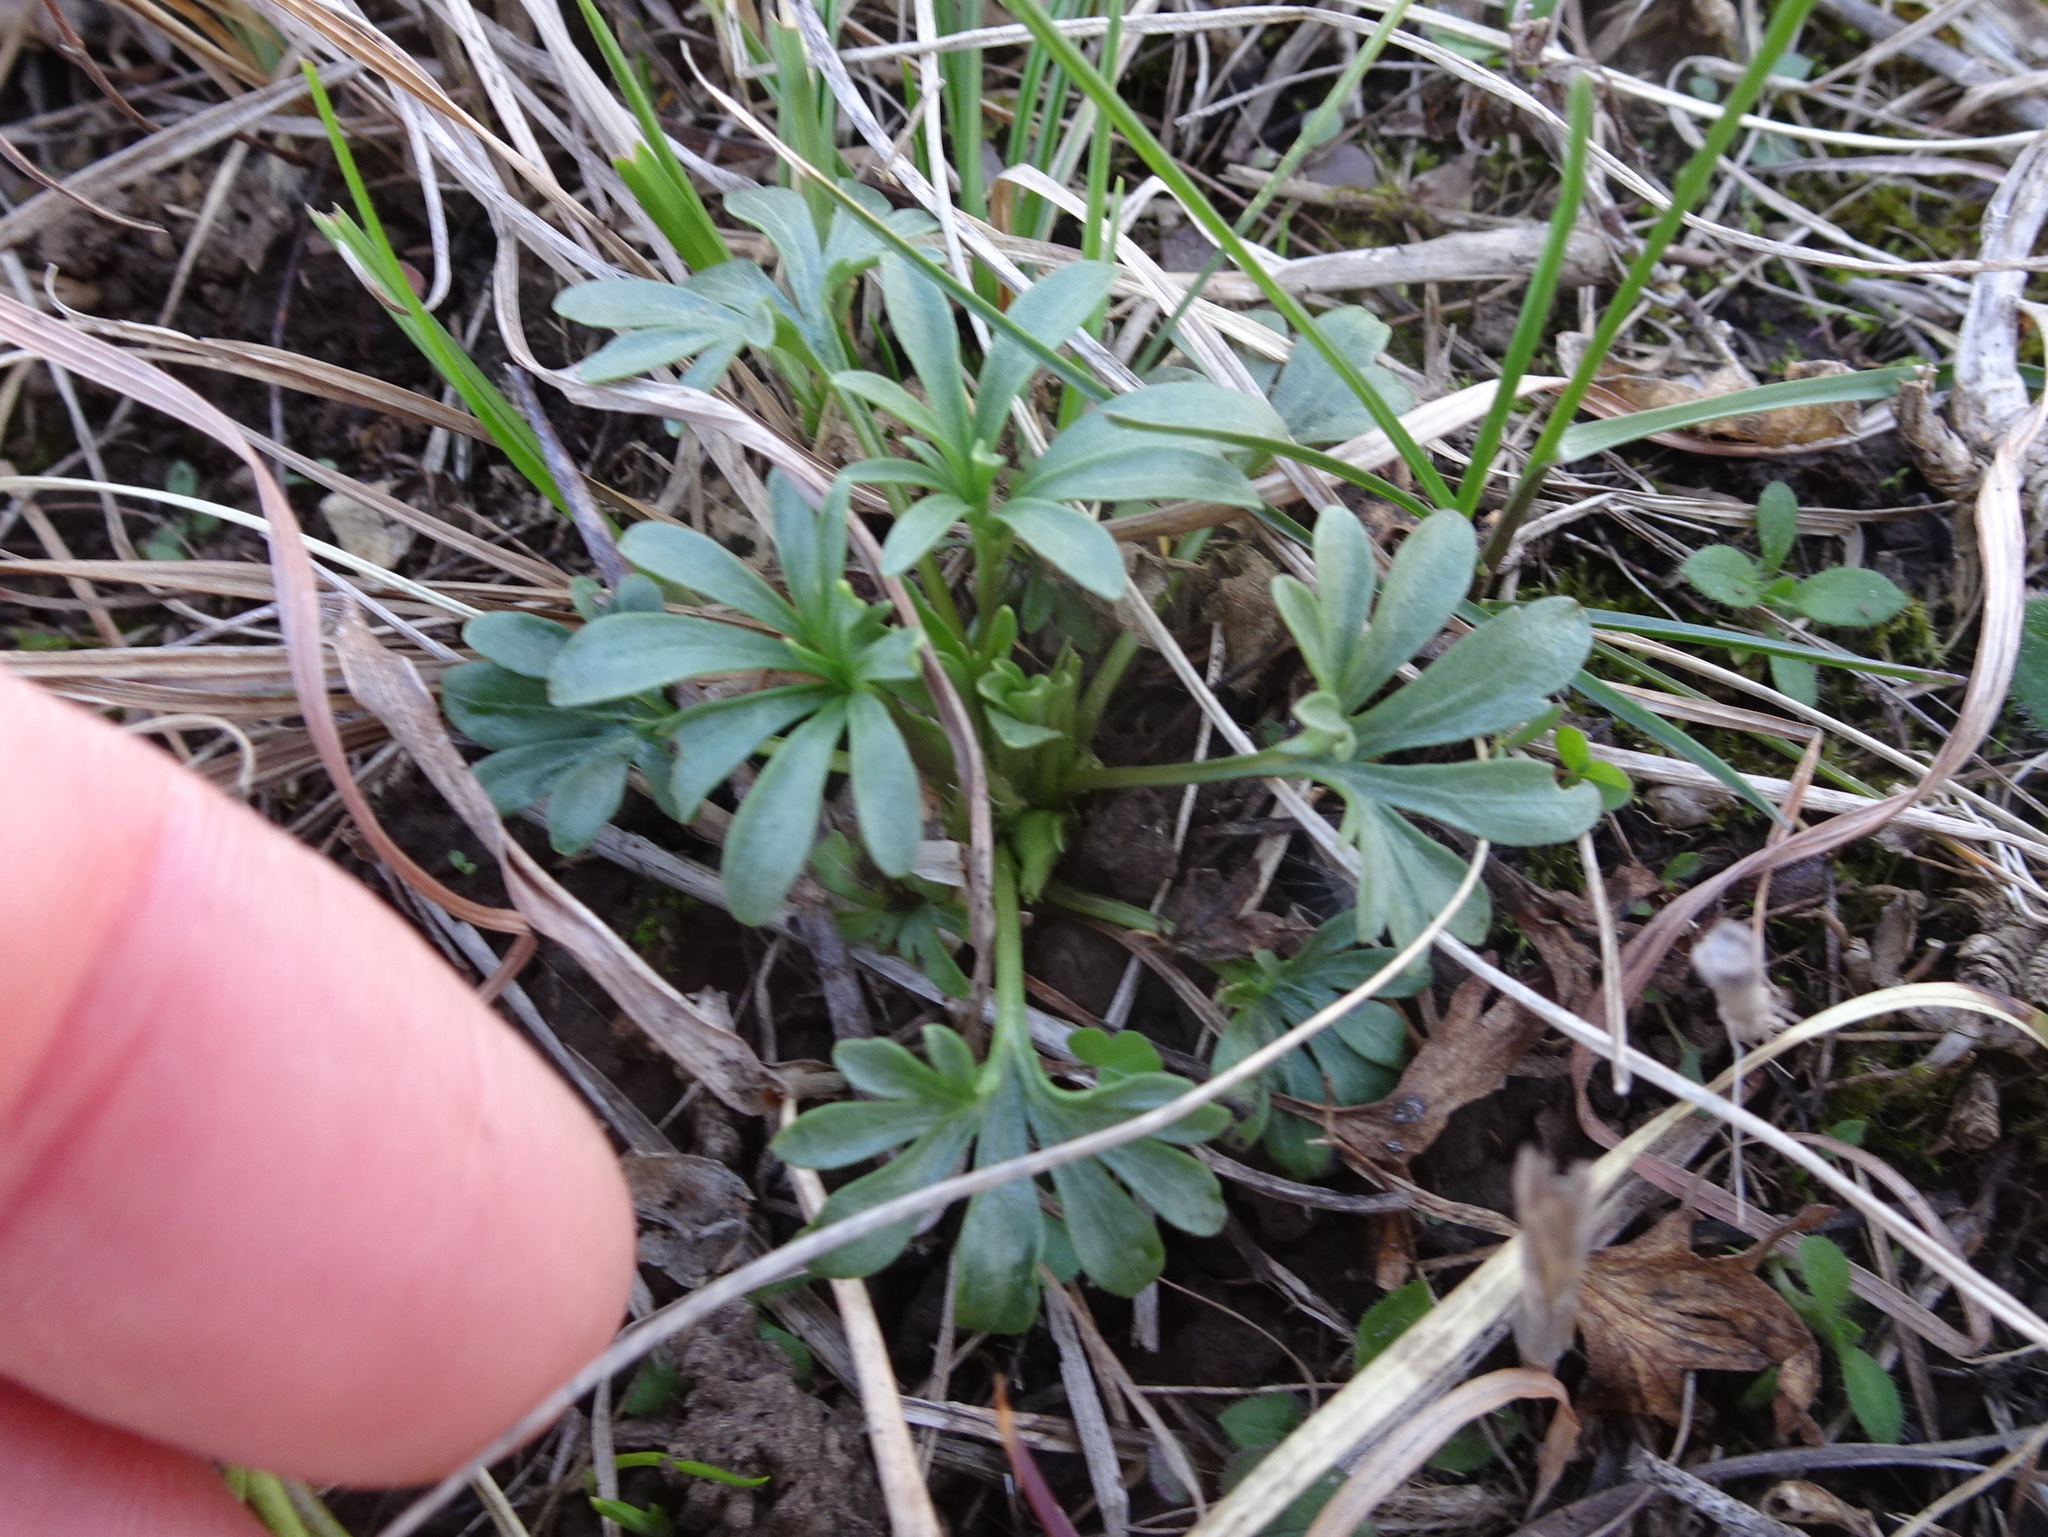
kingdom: Plantae
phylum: Tracheophyta
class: Magnoliopsida
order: Malpighiales
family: Violaceae
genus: Viola
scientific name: Viola pedata
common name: Pansy violet
